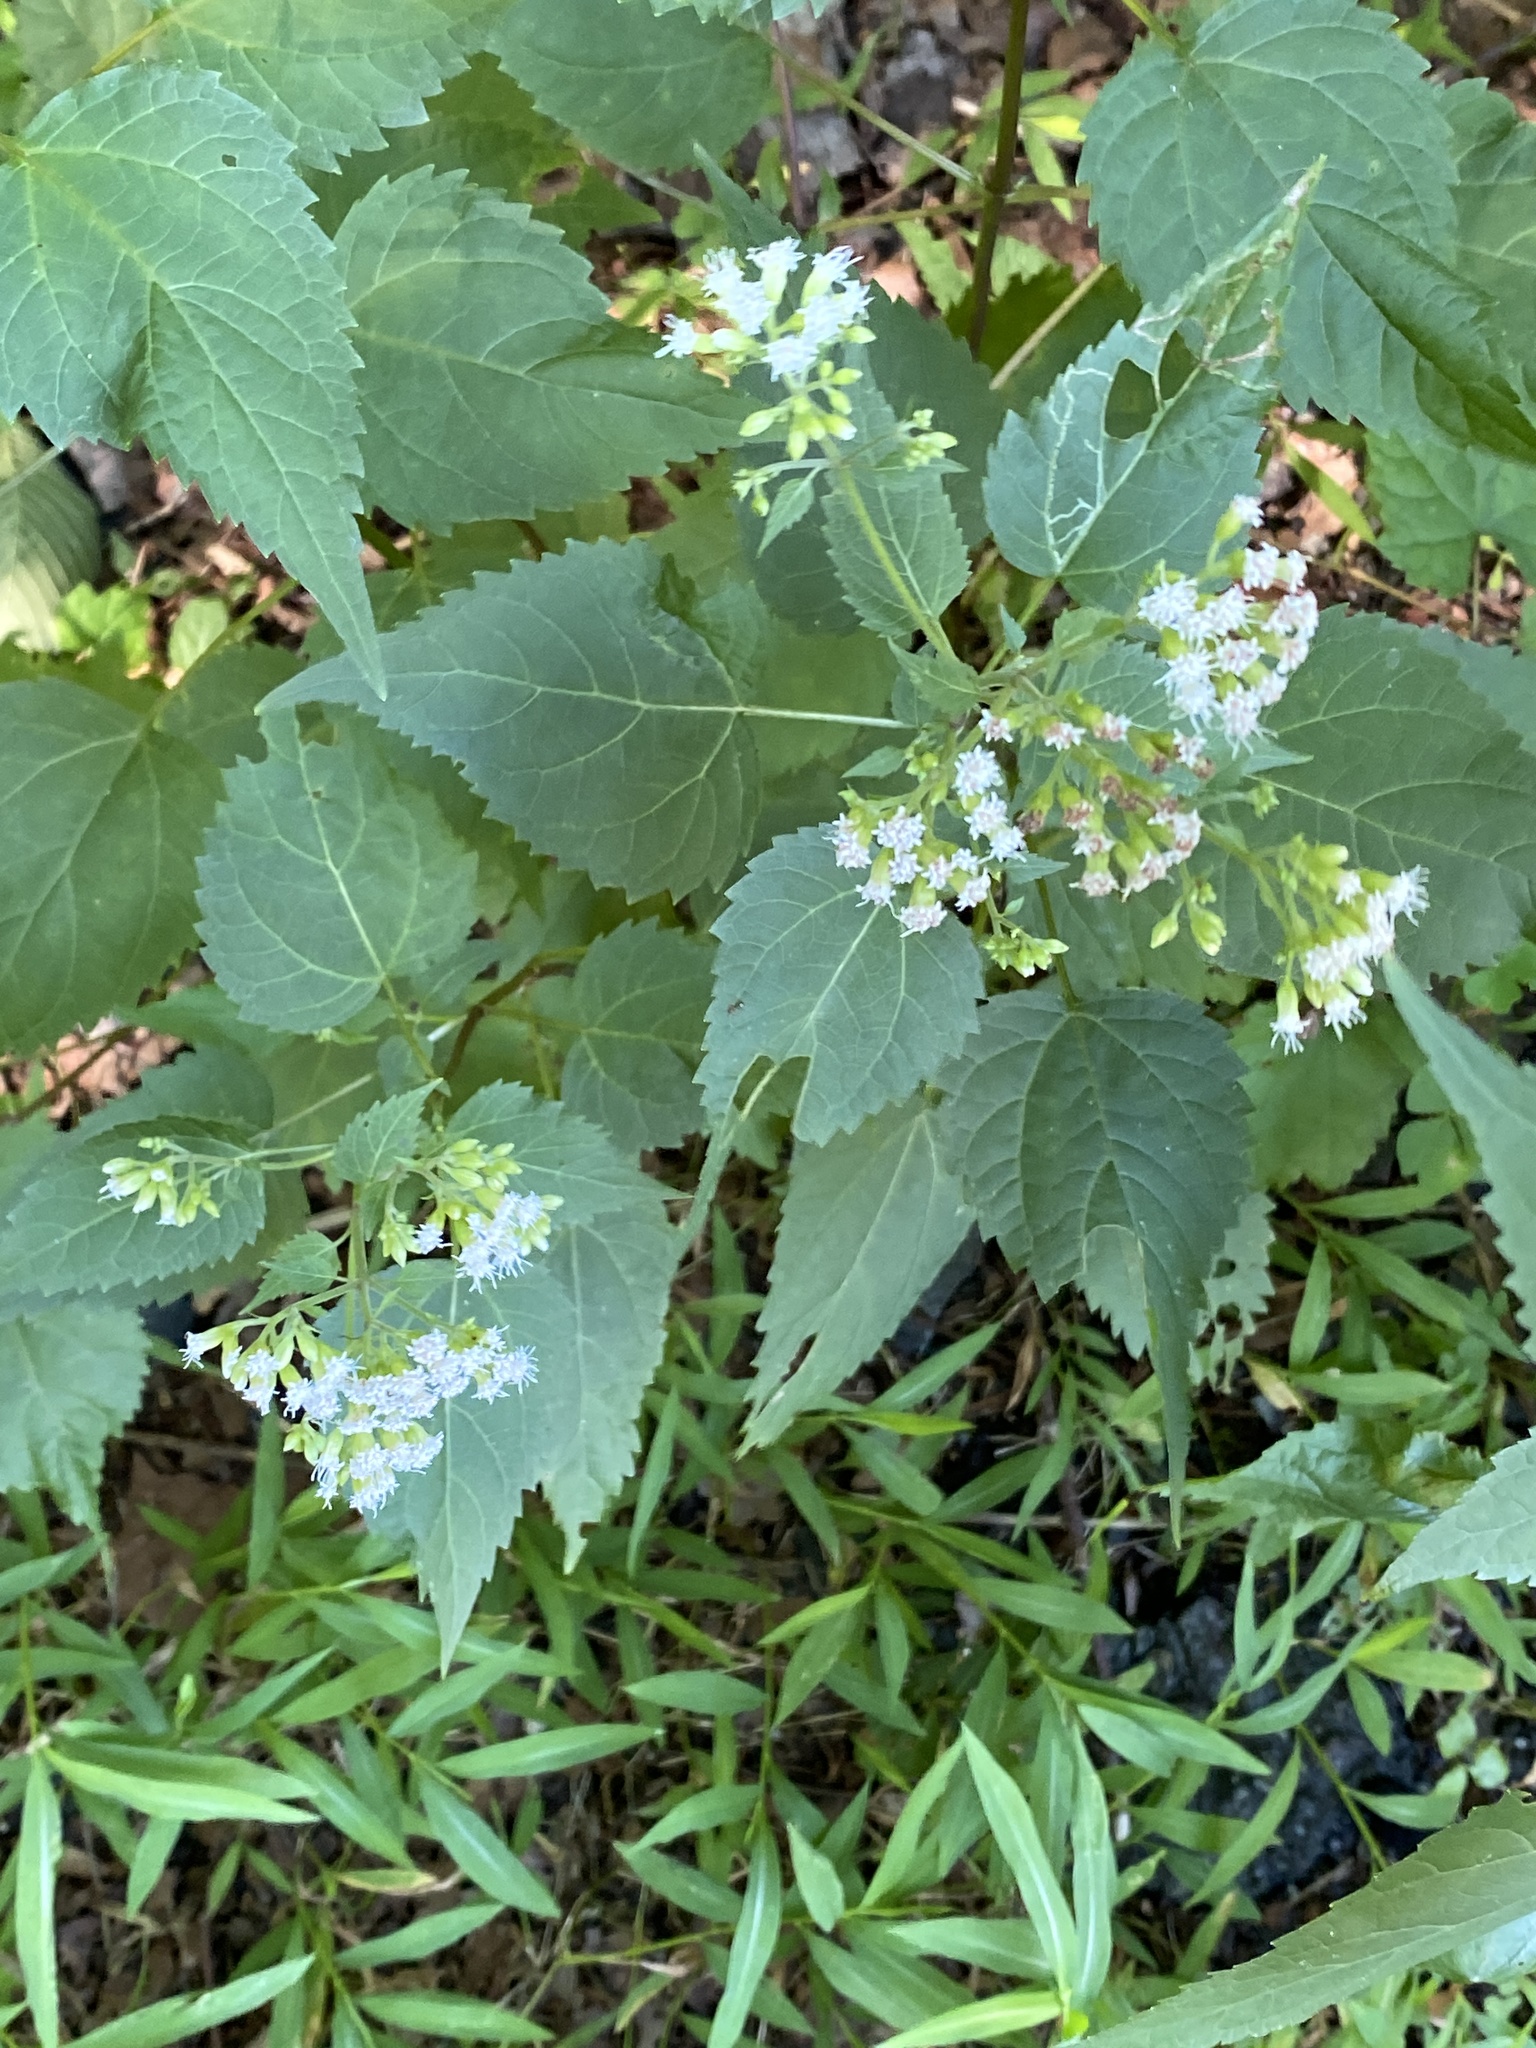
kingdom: Plantae
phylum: Tracheophyta
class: Magnoliopsida
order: Asterales
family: Asteraceae
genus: Ageratina
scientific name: Ageratina altissima
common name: White snakeroot
